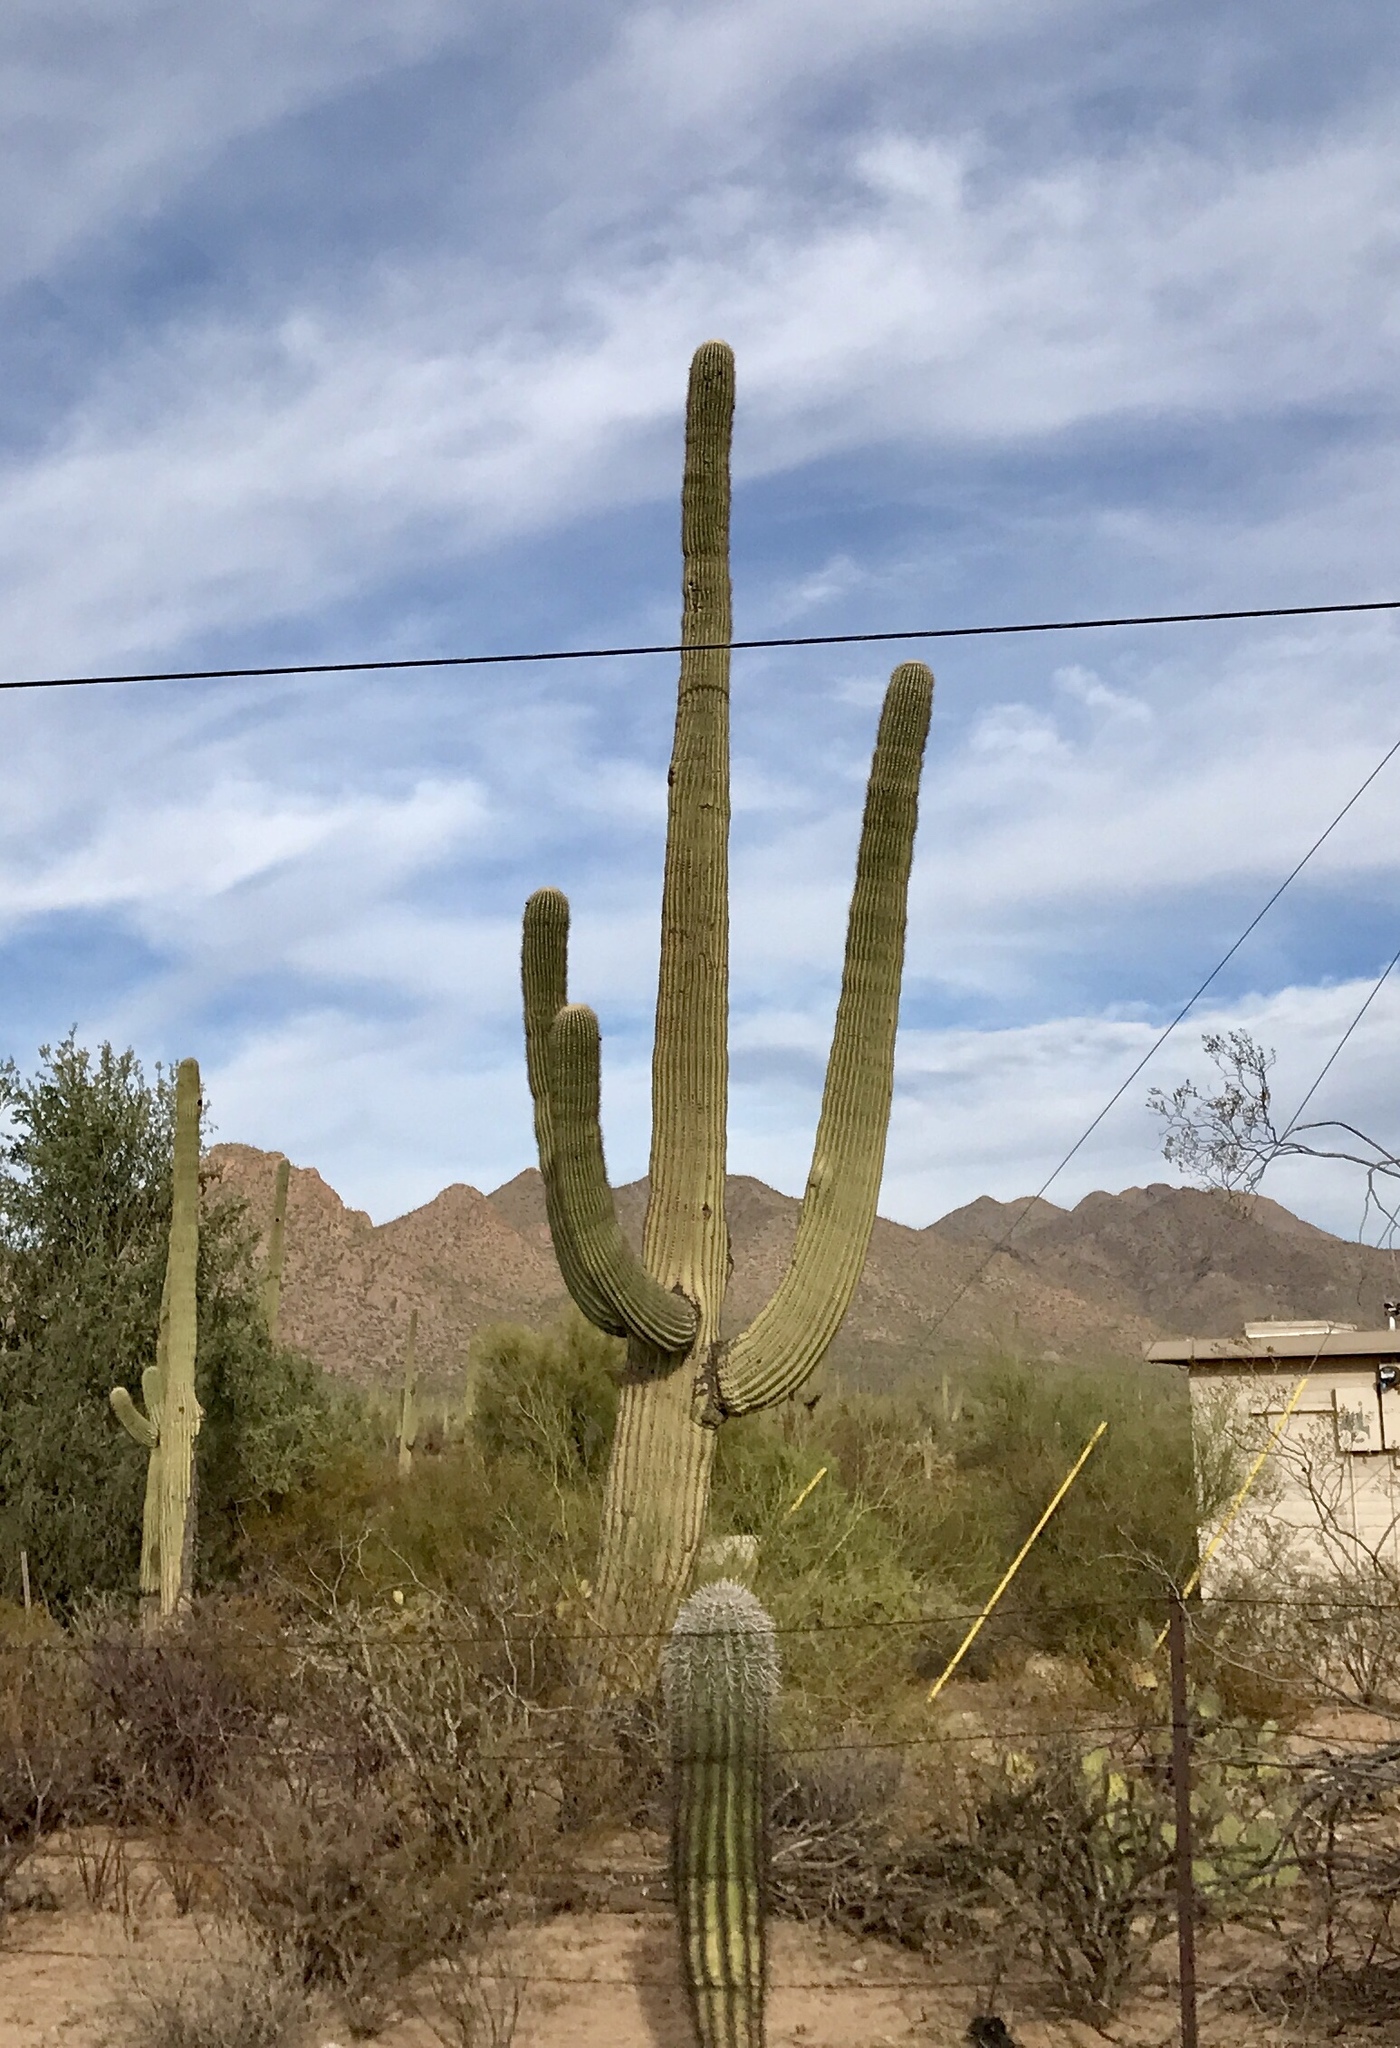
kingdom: Plantae
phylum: Tracheophyta
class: Magnoliopsida
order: Caryophyllales
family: Cactaceae
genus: Carnegiea
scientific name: Carnegiea gigantea
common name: Saguaro
